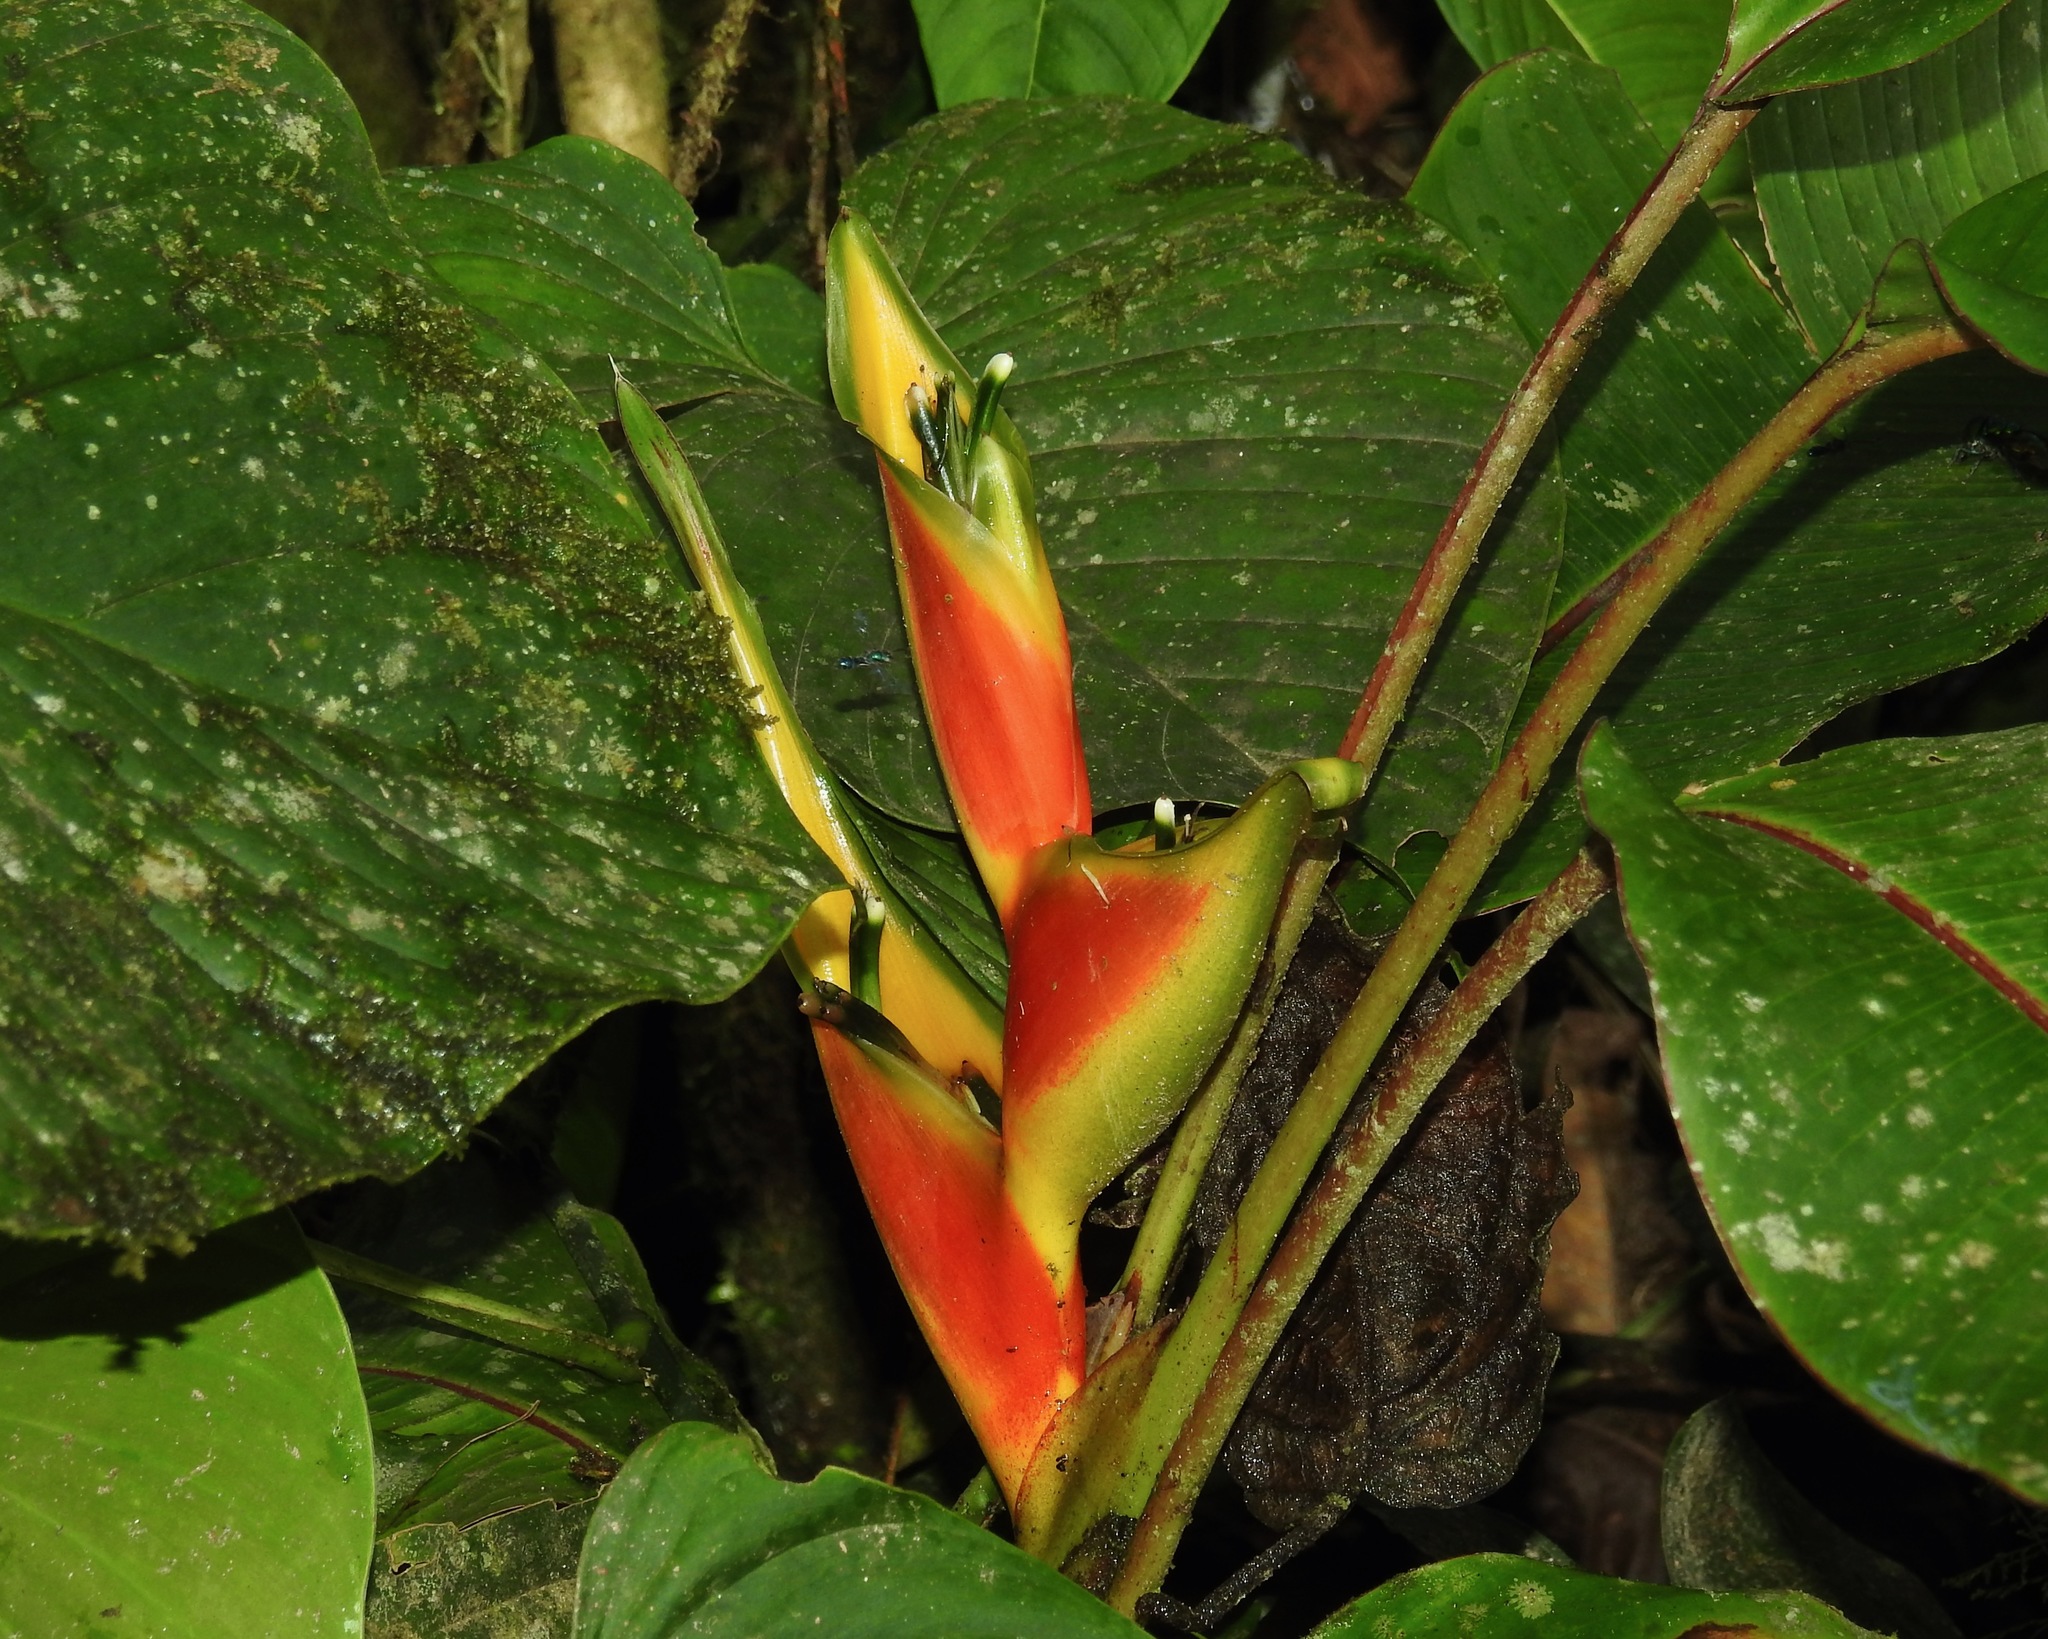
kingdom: Plantae
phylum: Tracheophyta
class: Liliopsida
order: Zingiberales
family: Heliconiaceae
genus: Heliconia
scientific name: Heliconia wagneriana
